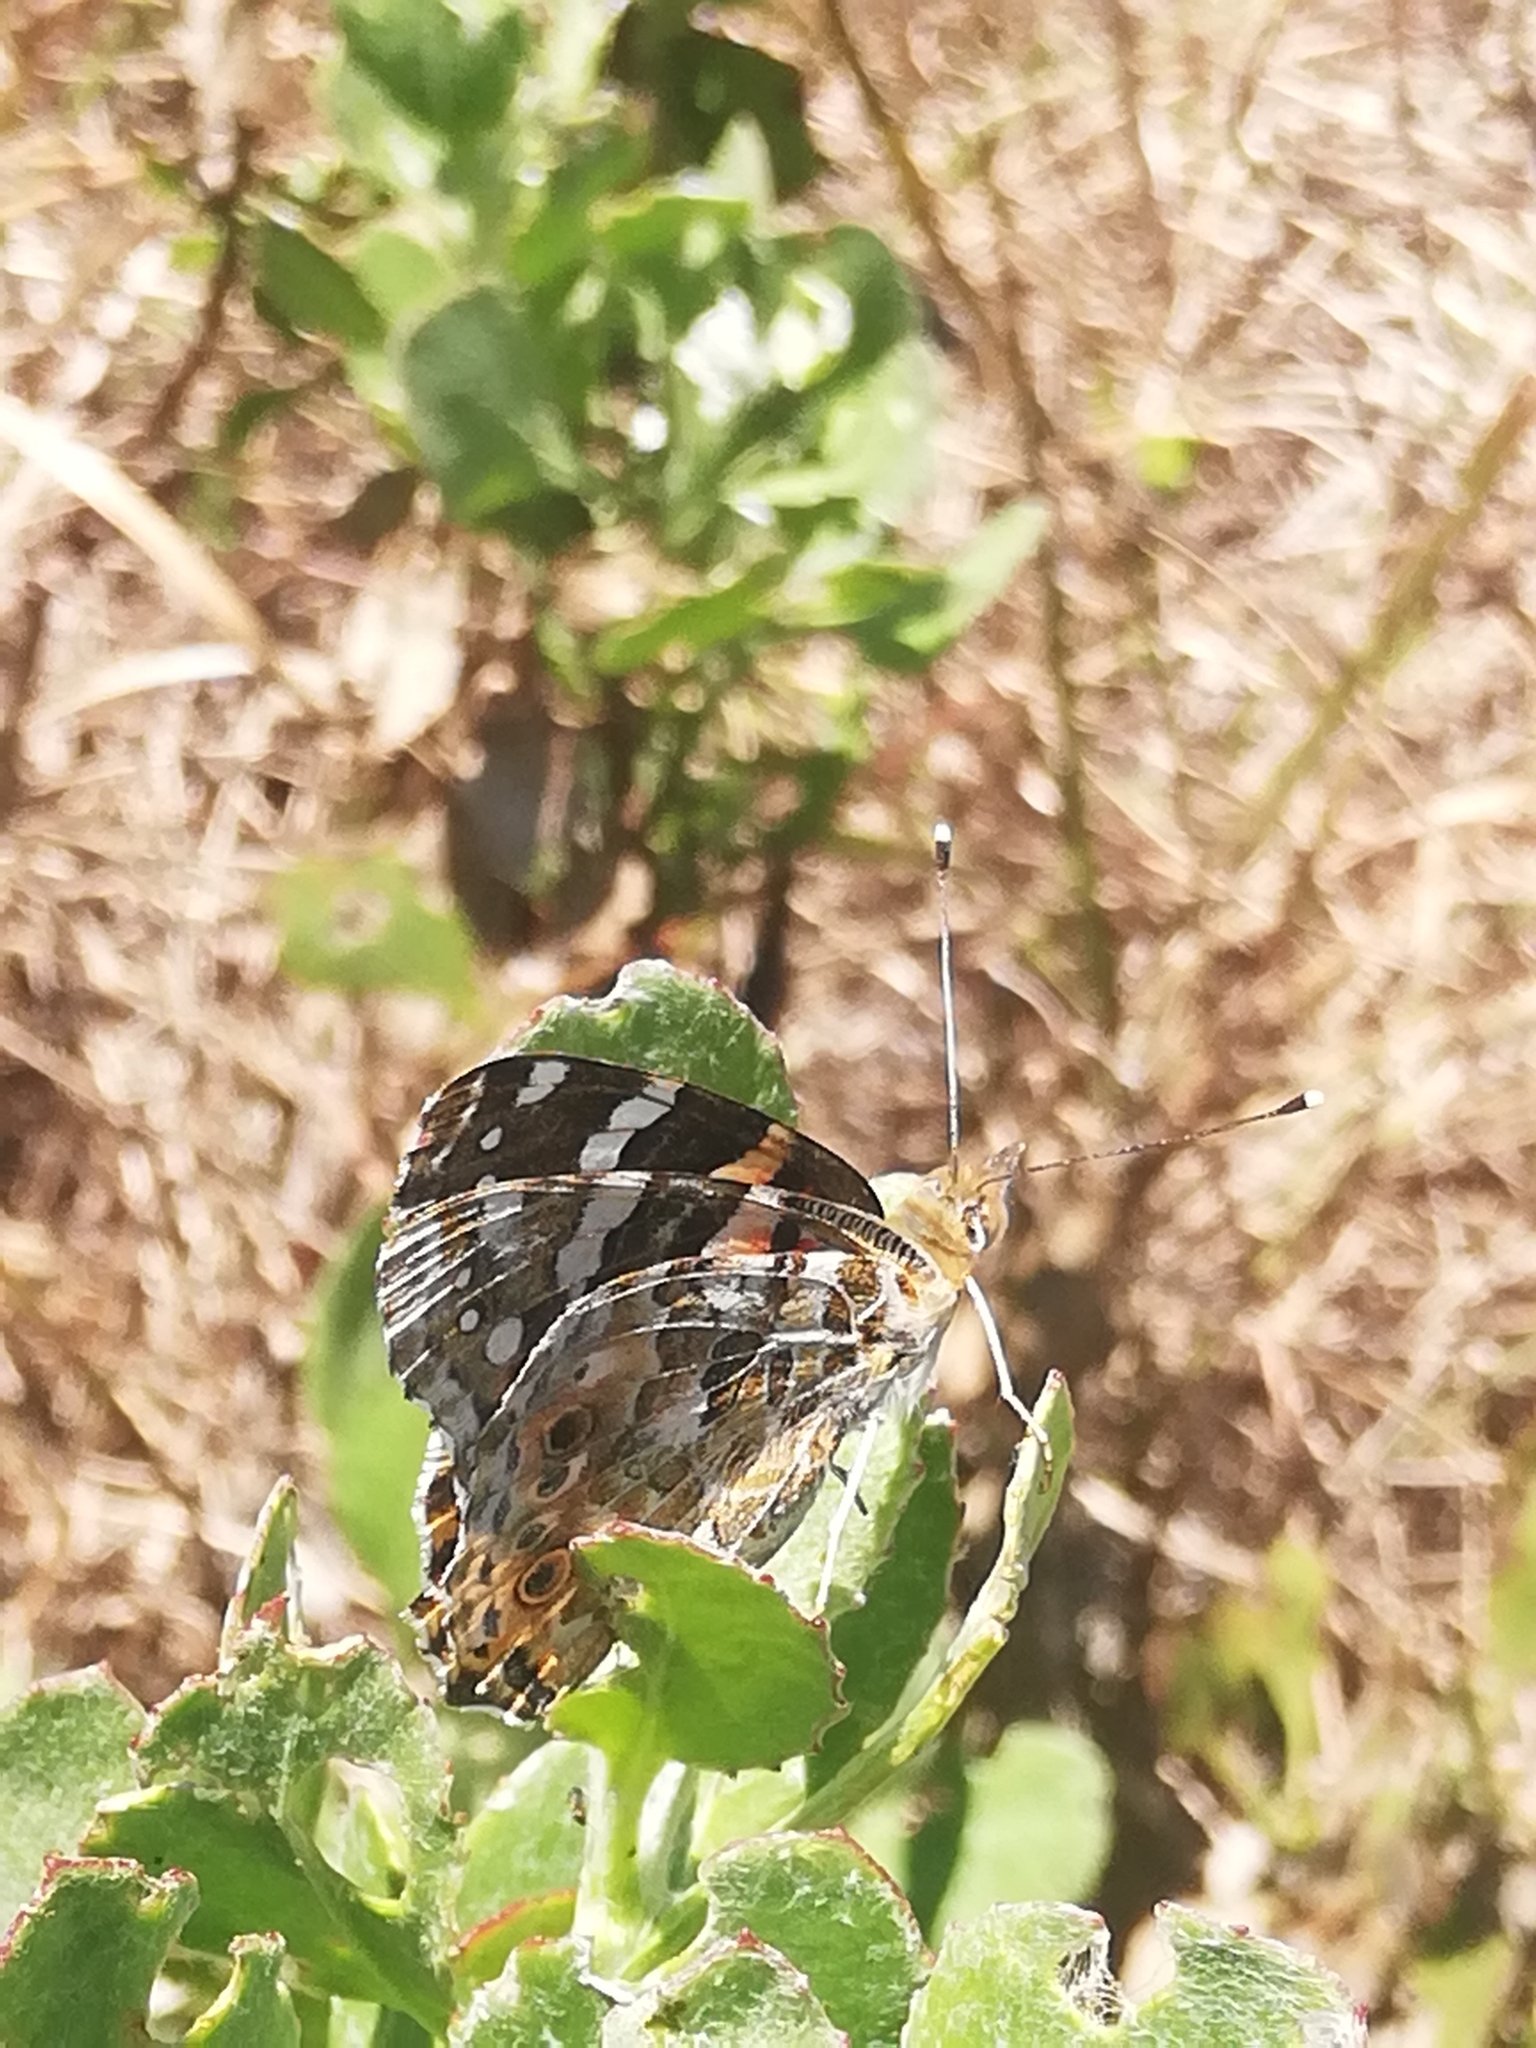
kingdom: Animalia
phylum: Arthropoda
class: Insecta
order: Lepidoptera
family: Nymphalidae
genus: Vanessa
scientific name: Vanessa cardui
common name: Painted lady
